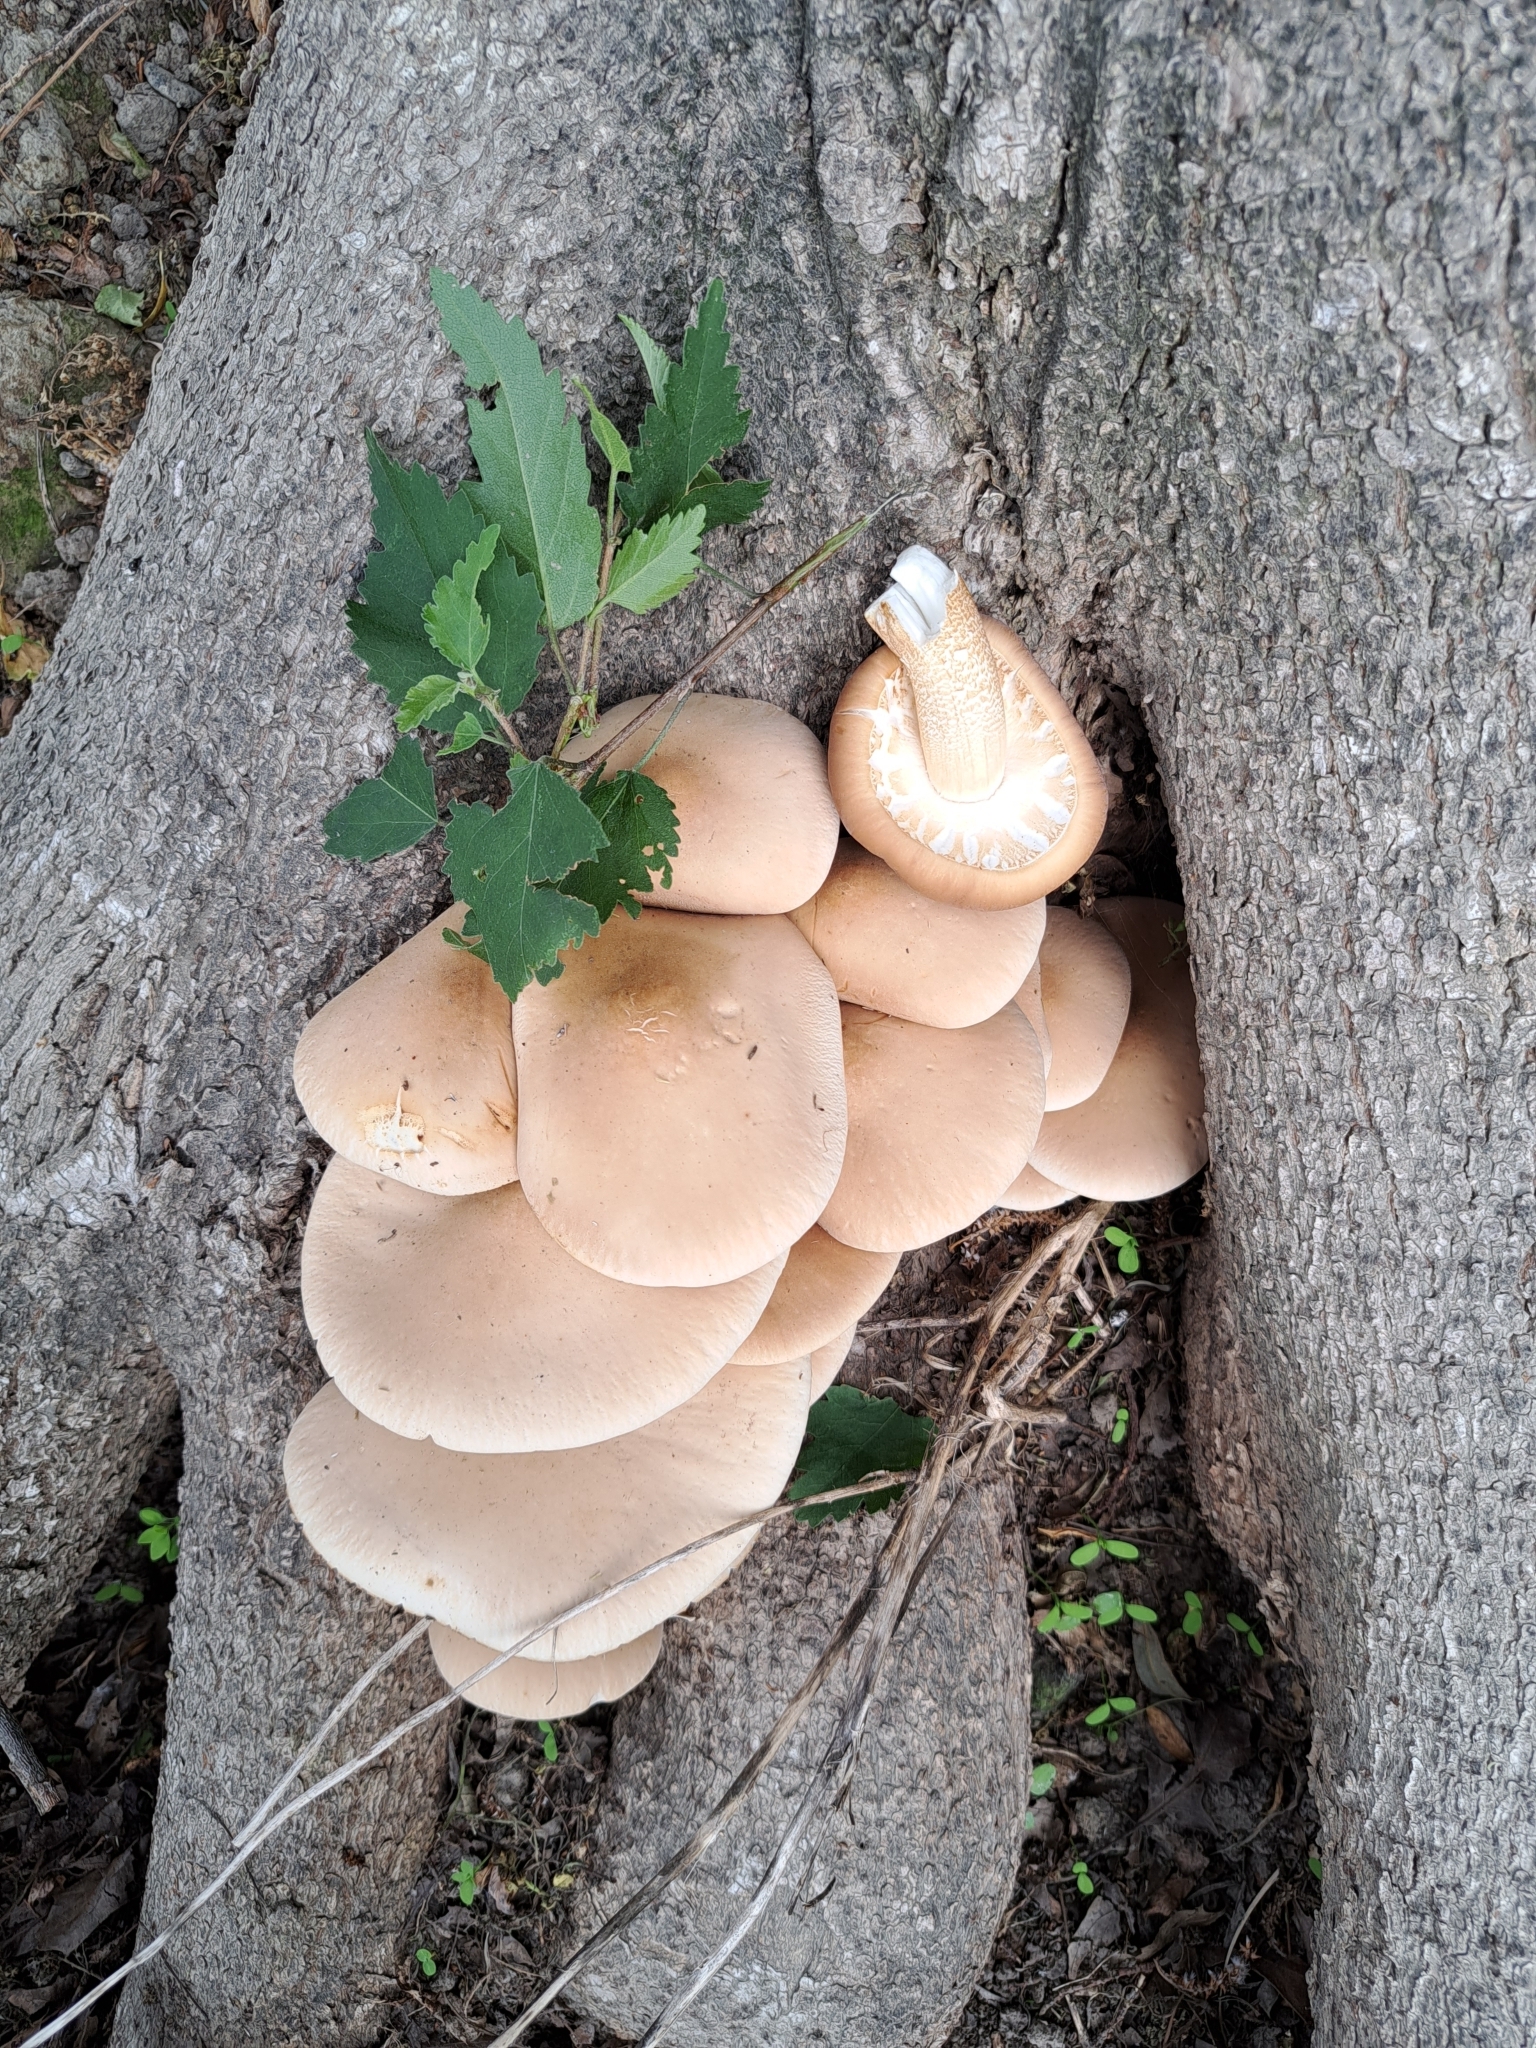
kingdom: Fungi
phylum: Basidiomycota
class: Agaricomycetes
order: Agaricales
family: Tubariaceae
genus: Cyclocybe
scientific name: Cyclocybe parasitica
